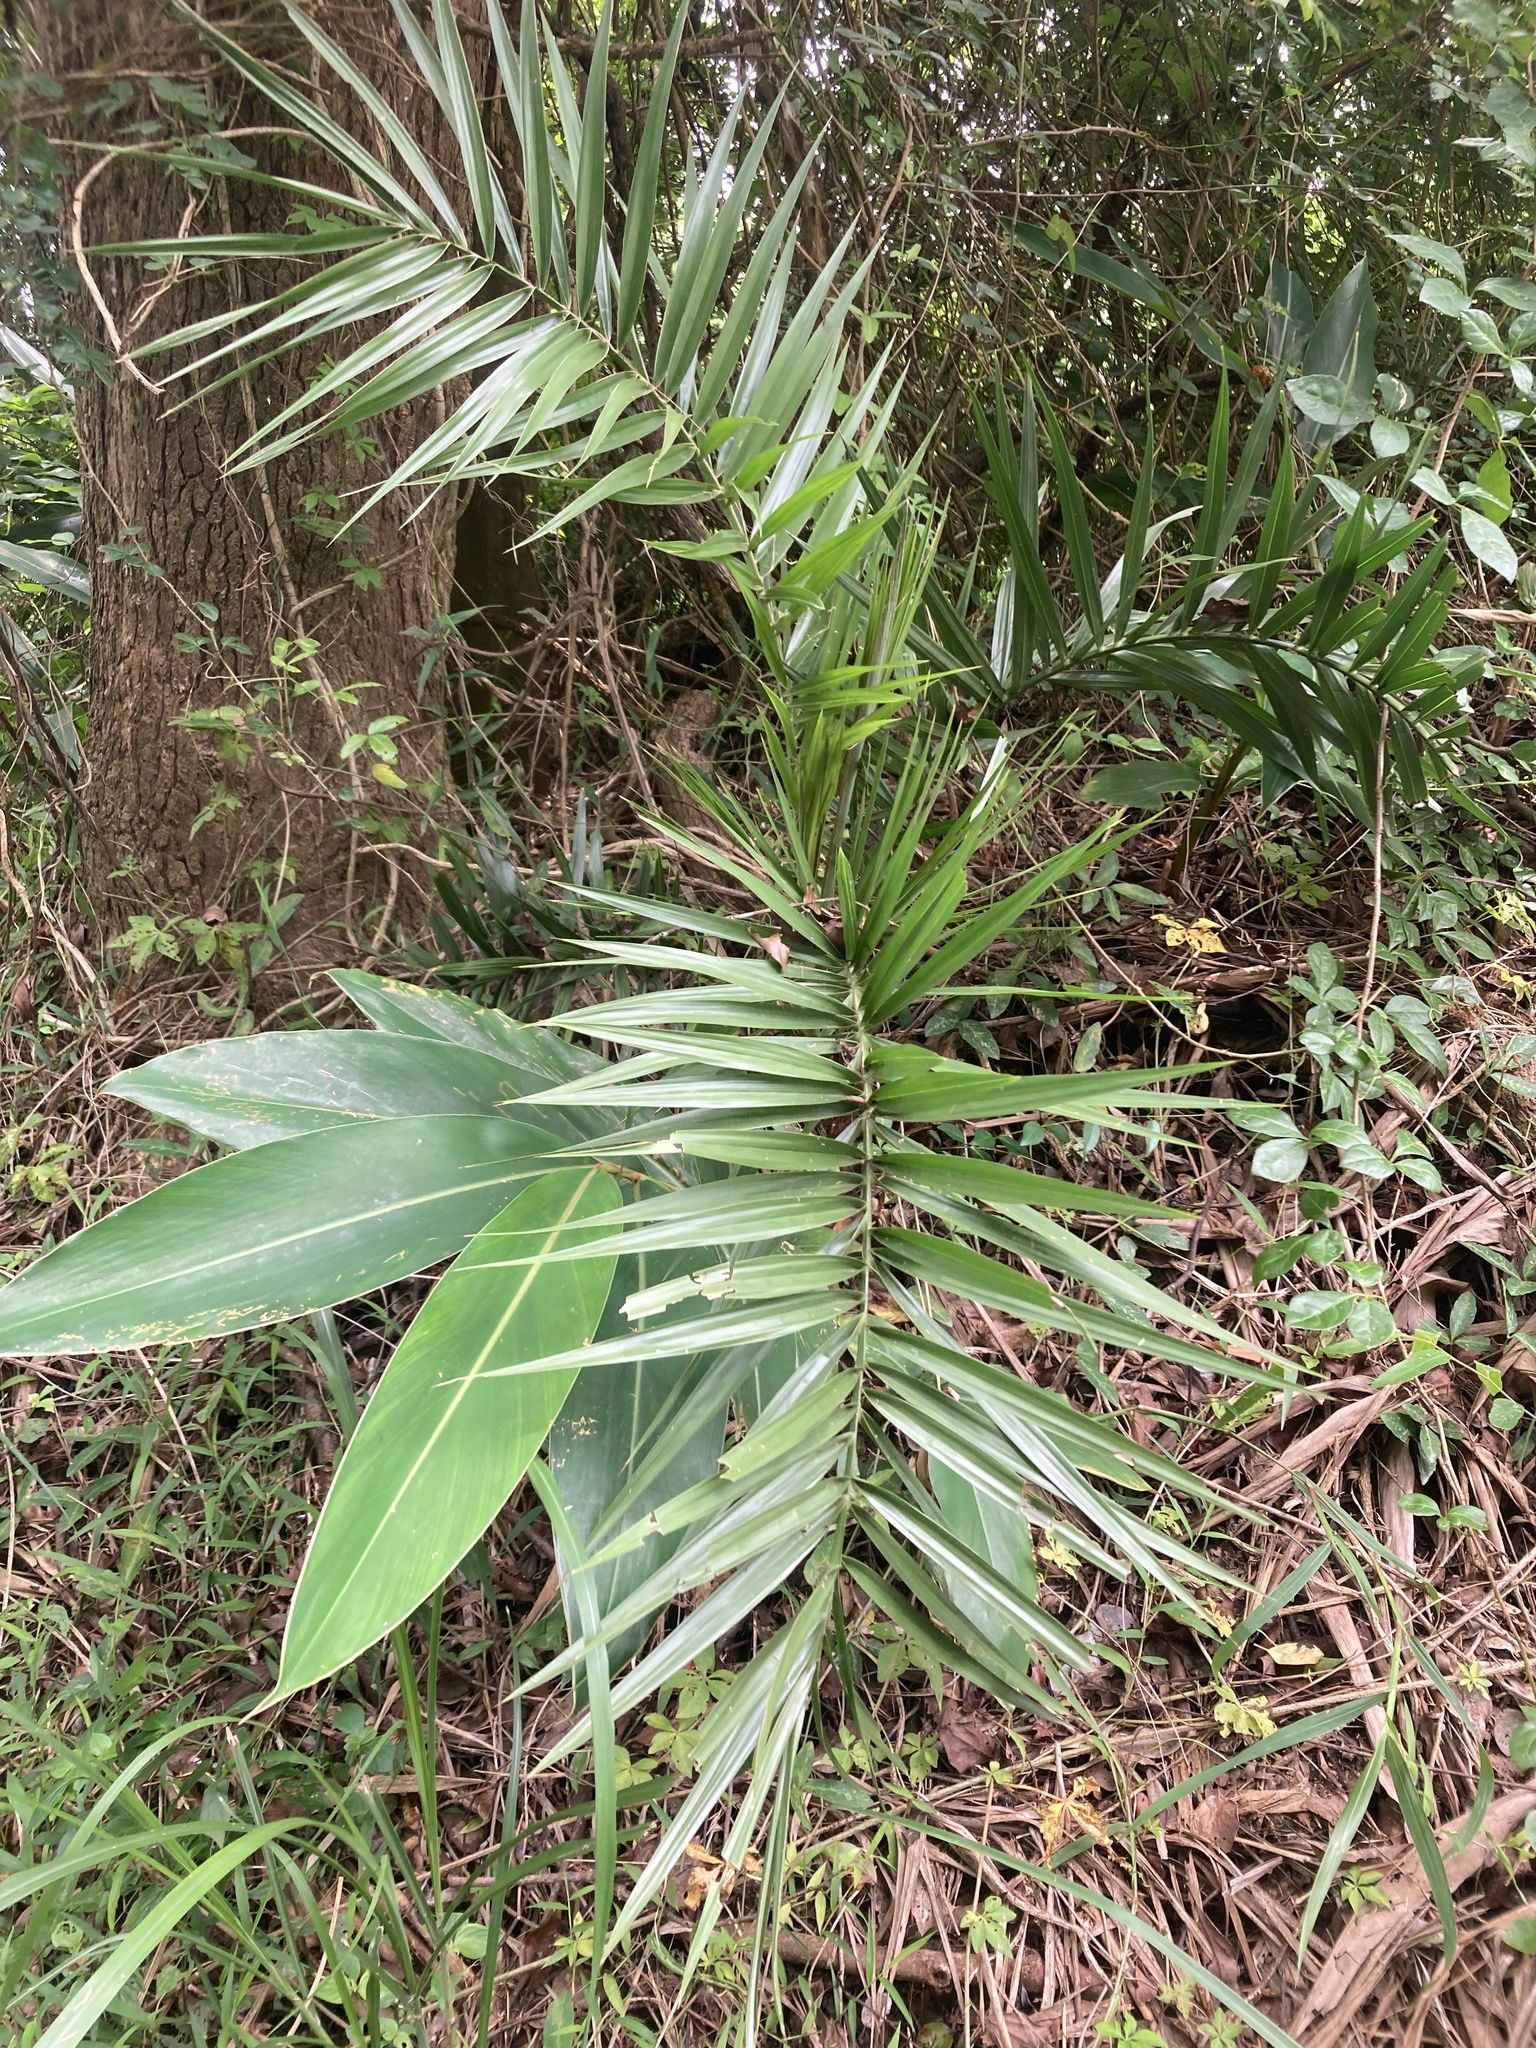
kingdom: Plantae
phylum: Tracheophyta
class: Liliopsida
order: Arecales
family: Arecaceae
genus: Phoenix
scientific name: Phoenix loureiroi
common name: Loureiro's palm
